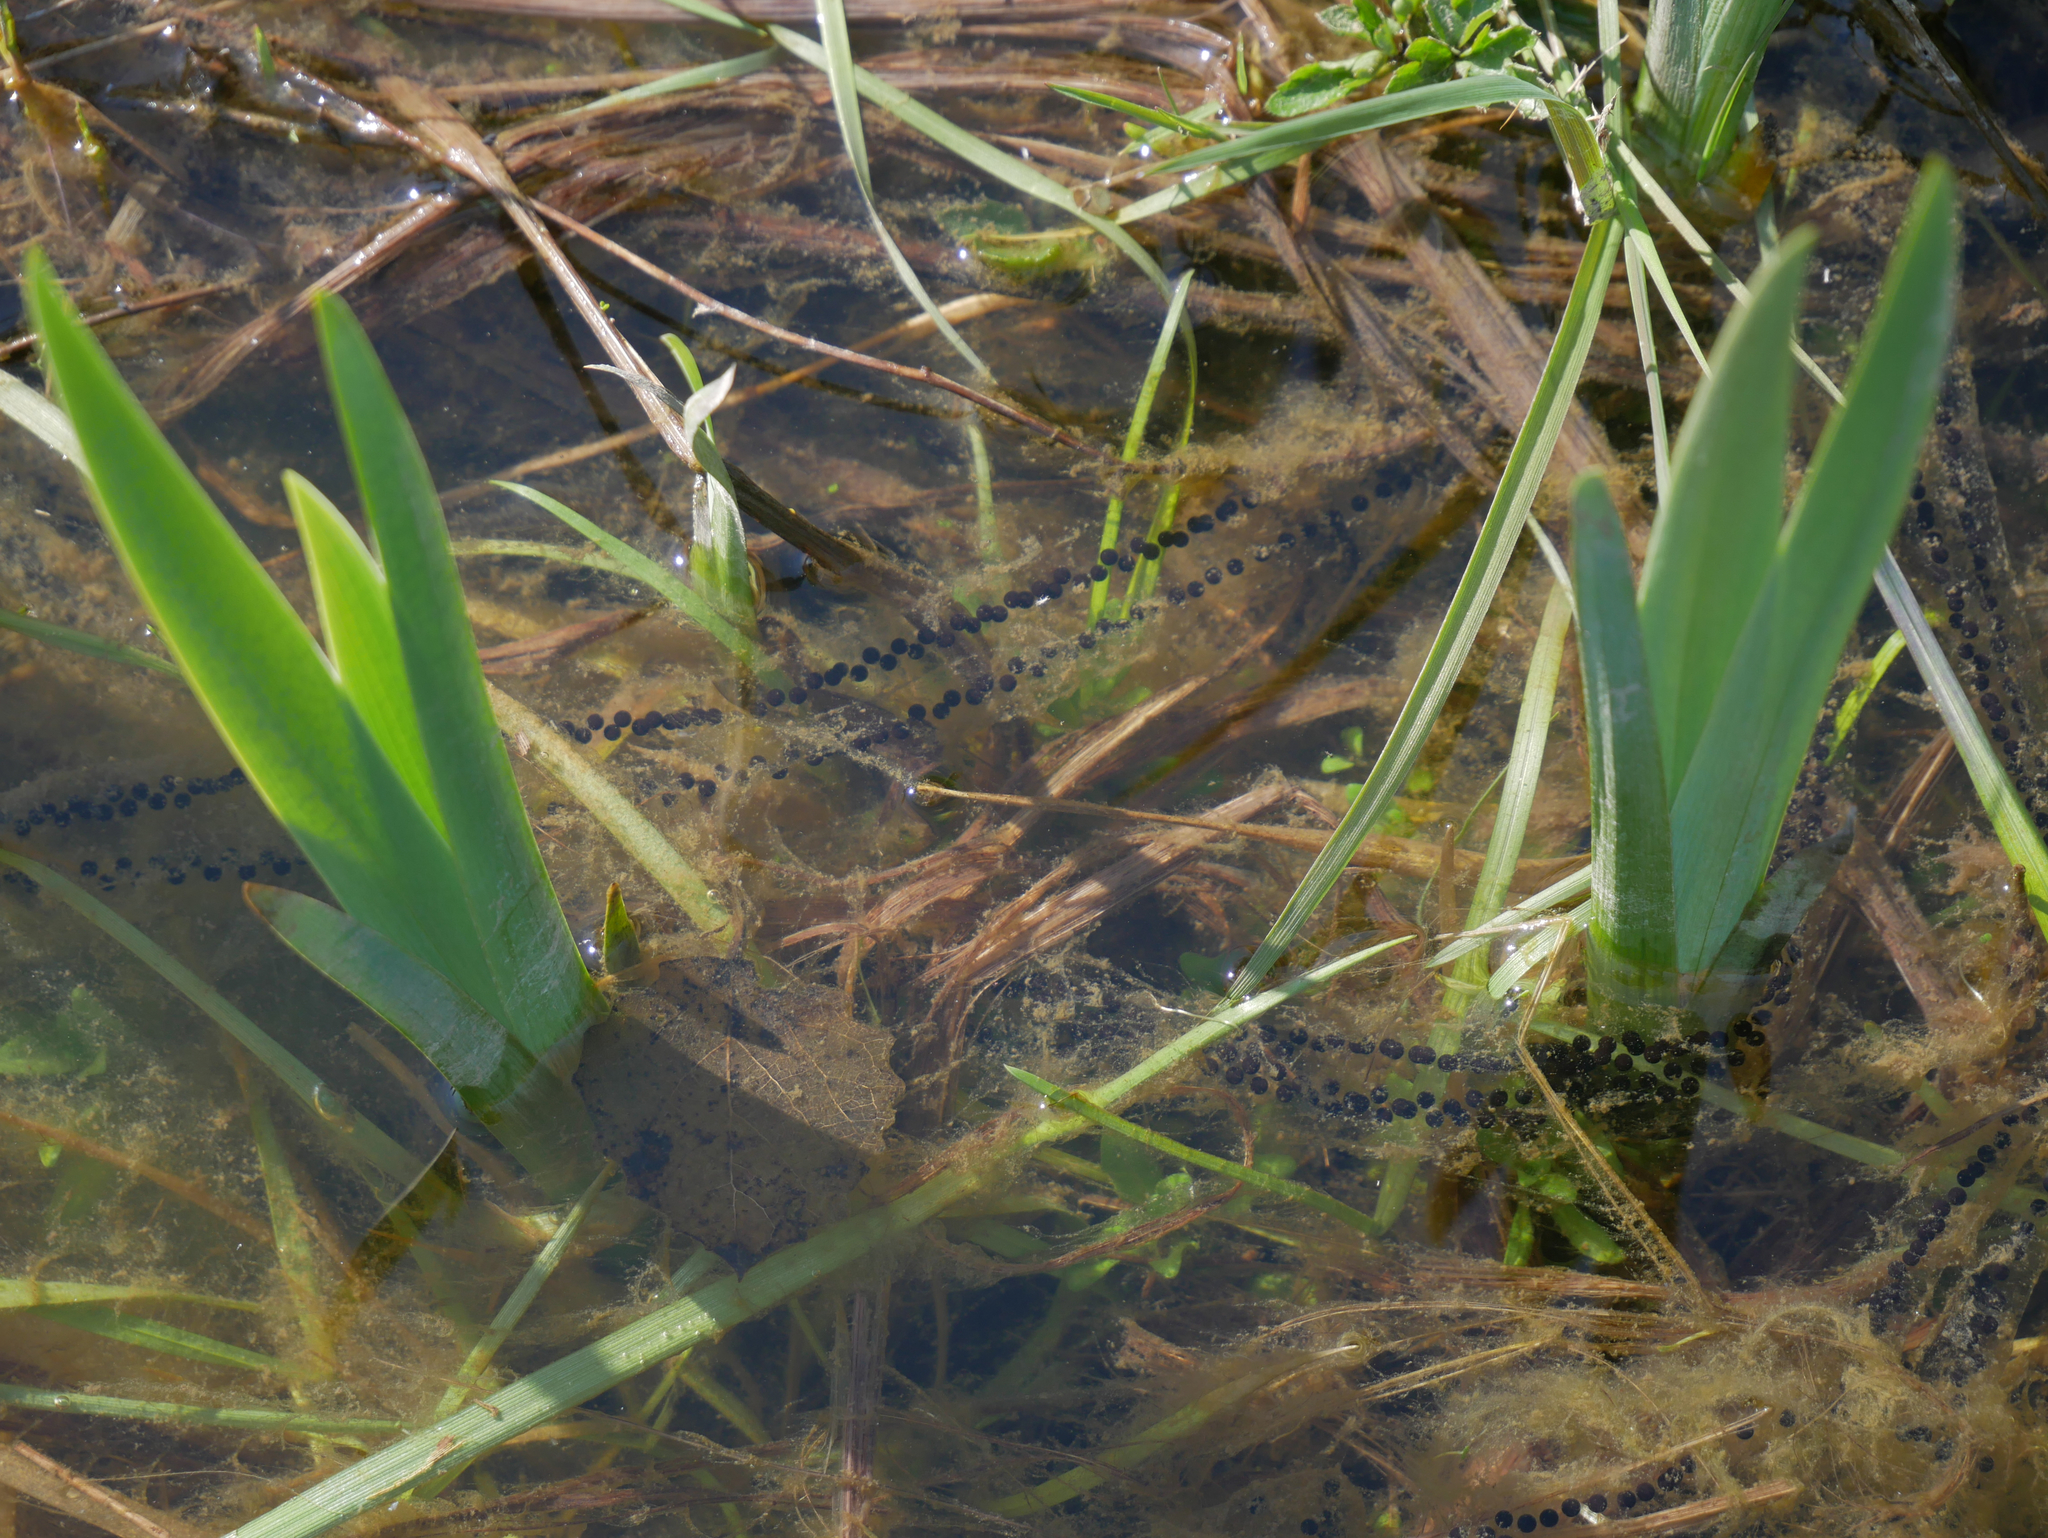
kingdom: Animalia
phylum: Chordata
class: Amphibia
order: Anura
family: Bufonidae
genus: Bufo
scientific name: Bufo bufo
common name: Common toad
